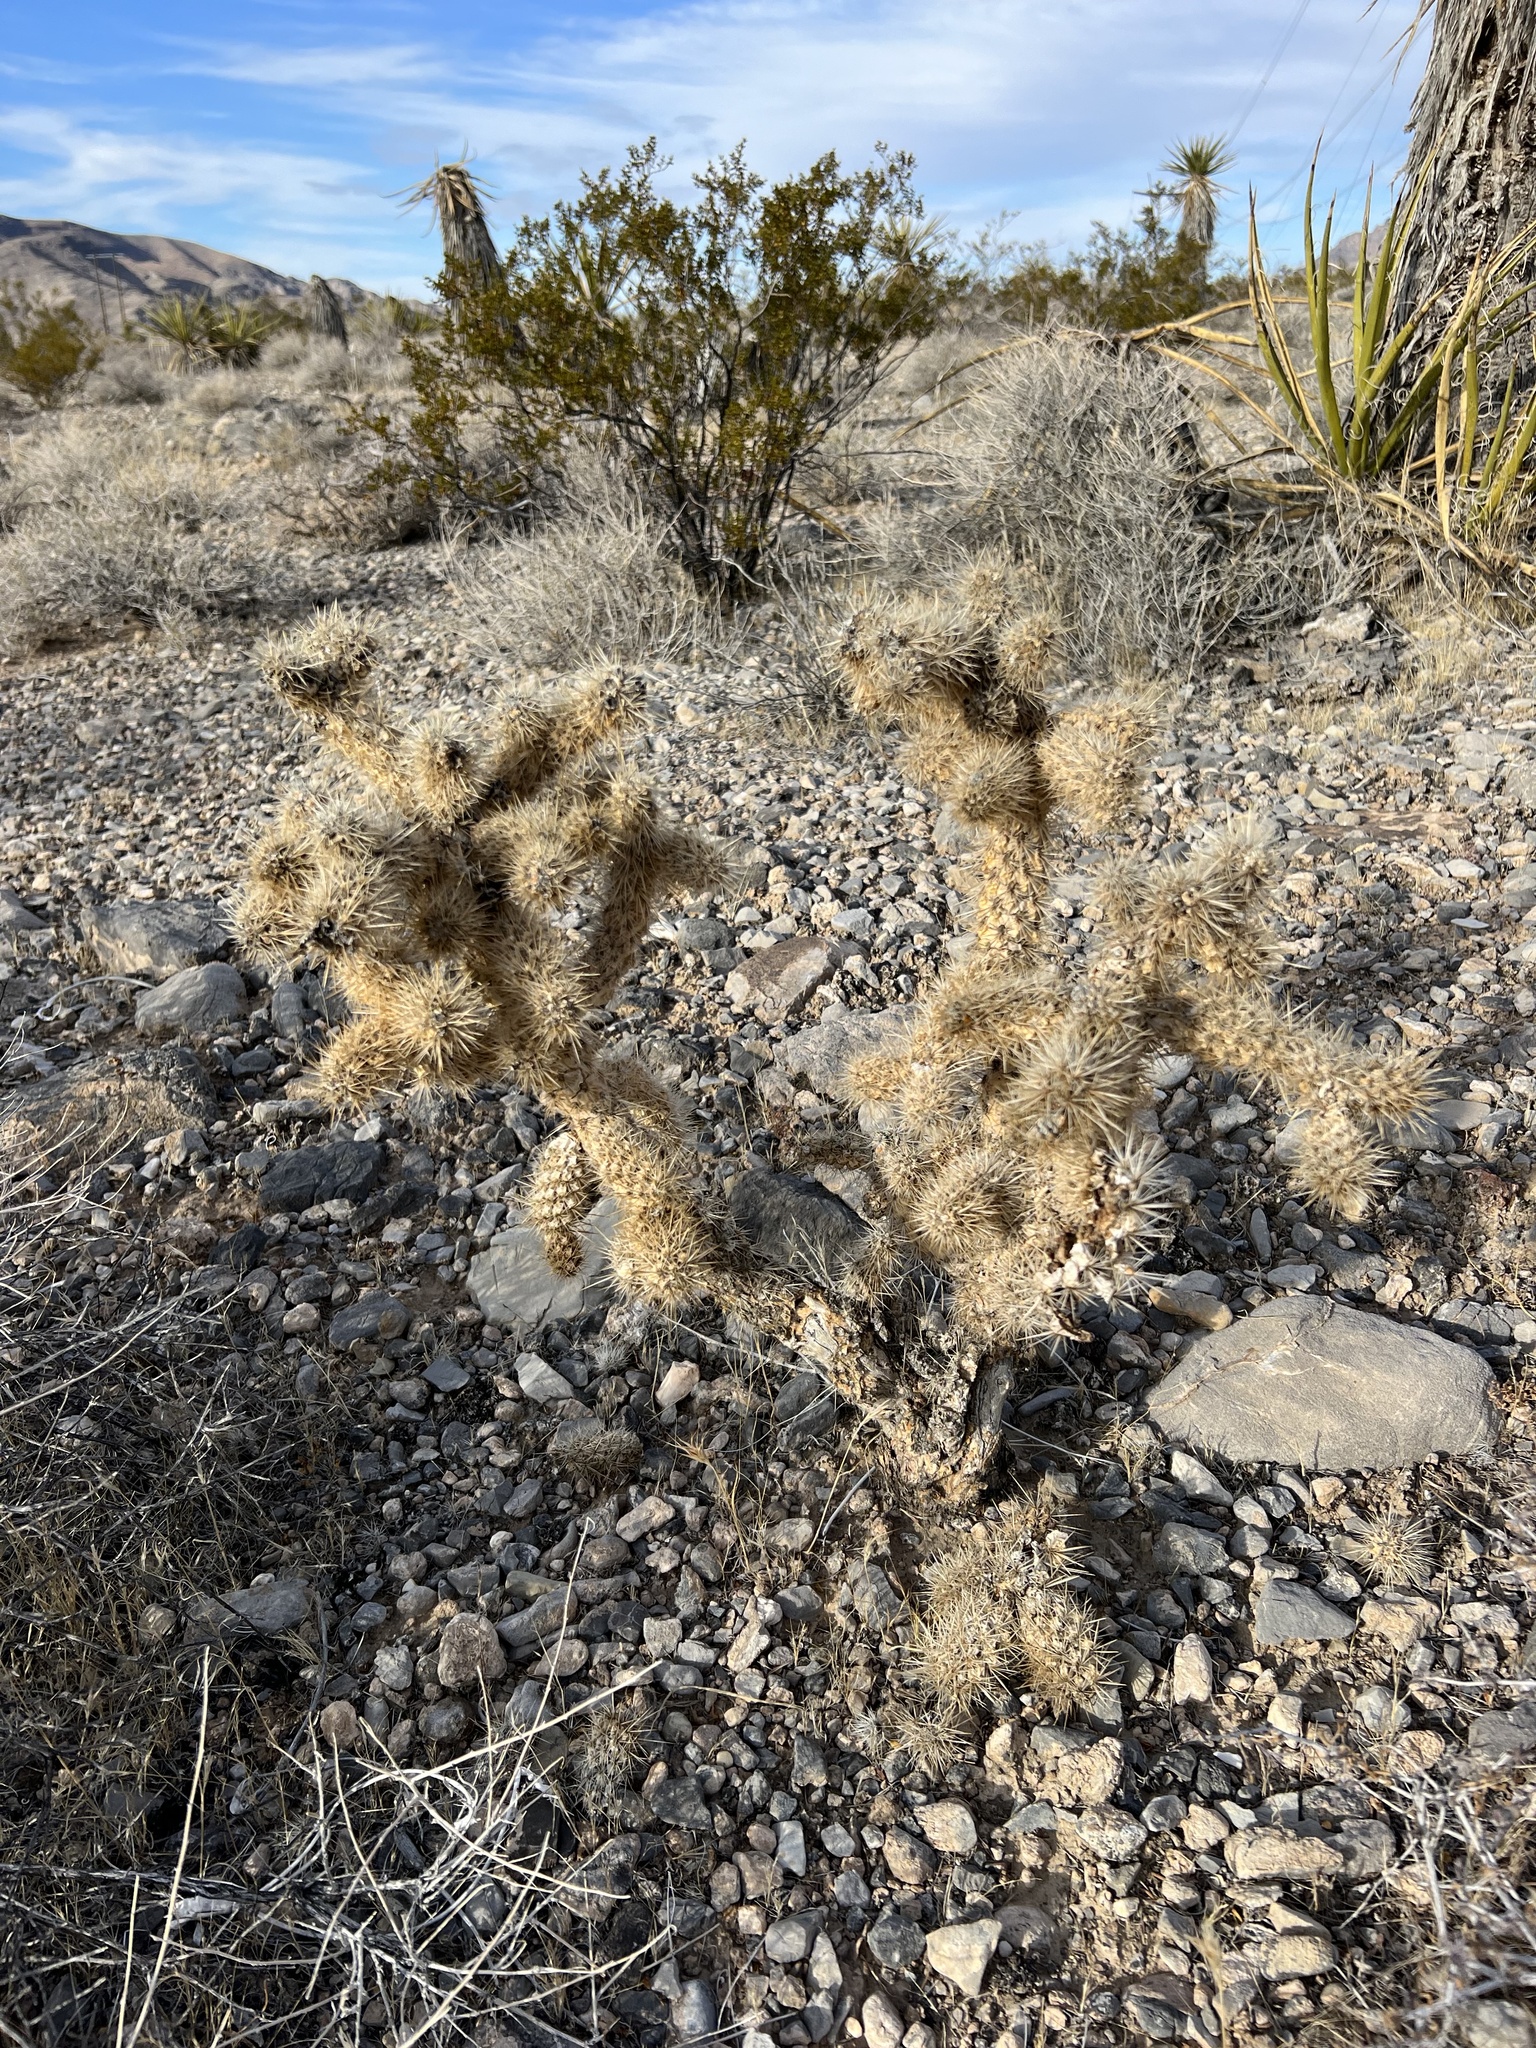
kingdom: Plantae
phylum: Tracheophyta
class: Magnoliopsida
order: Caryophyllales
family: Cactaceae
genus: Cylindropuntia
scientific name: Cylindropuntia echinocarpa
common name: Ground cholla
